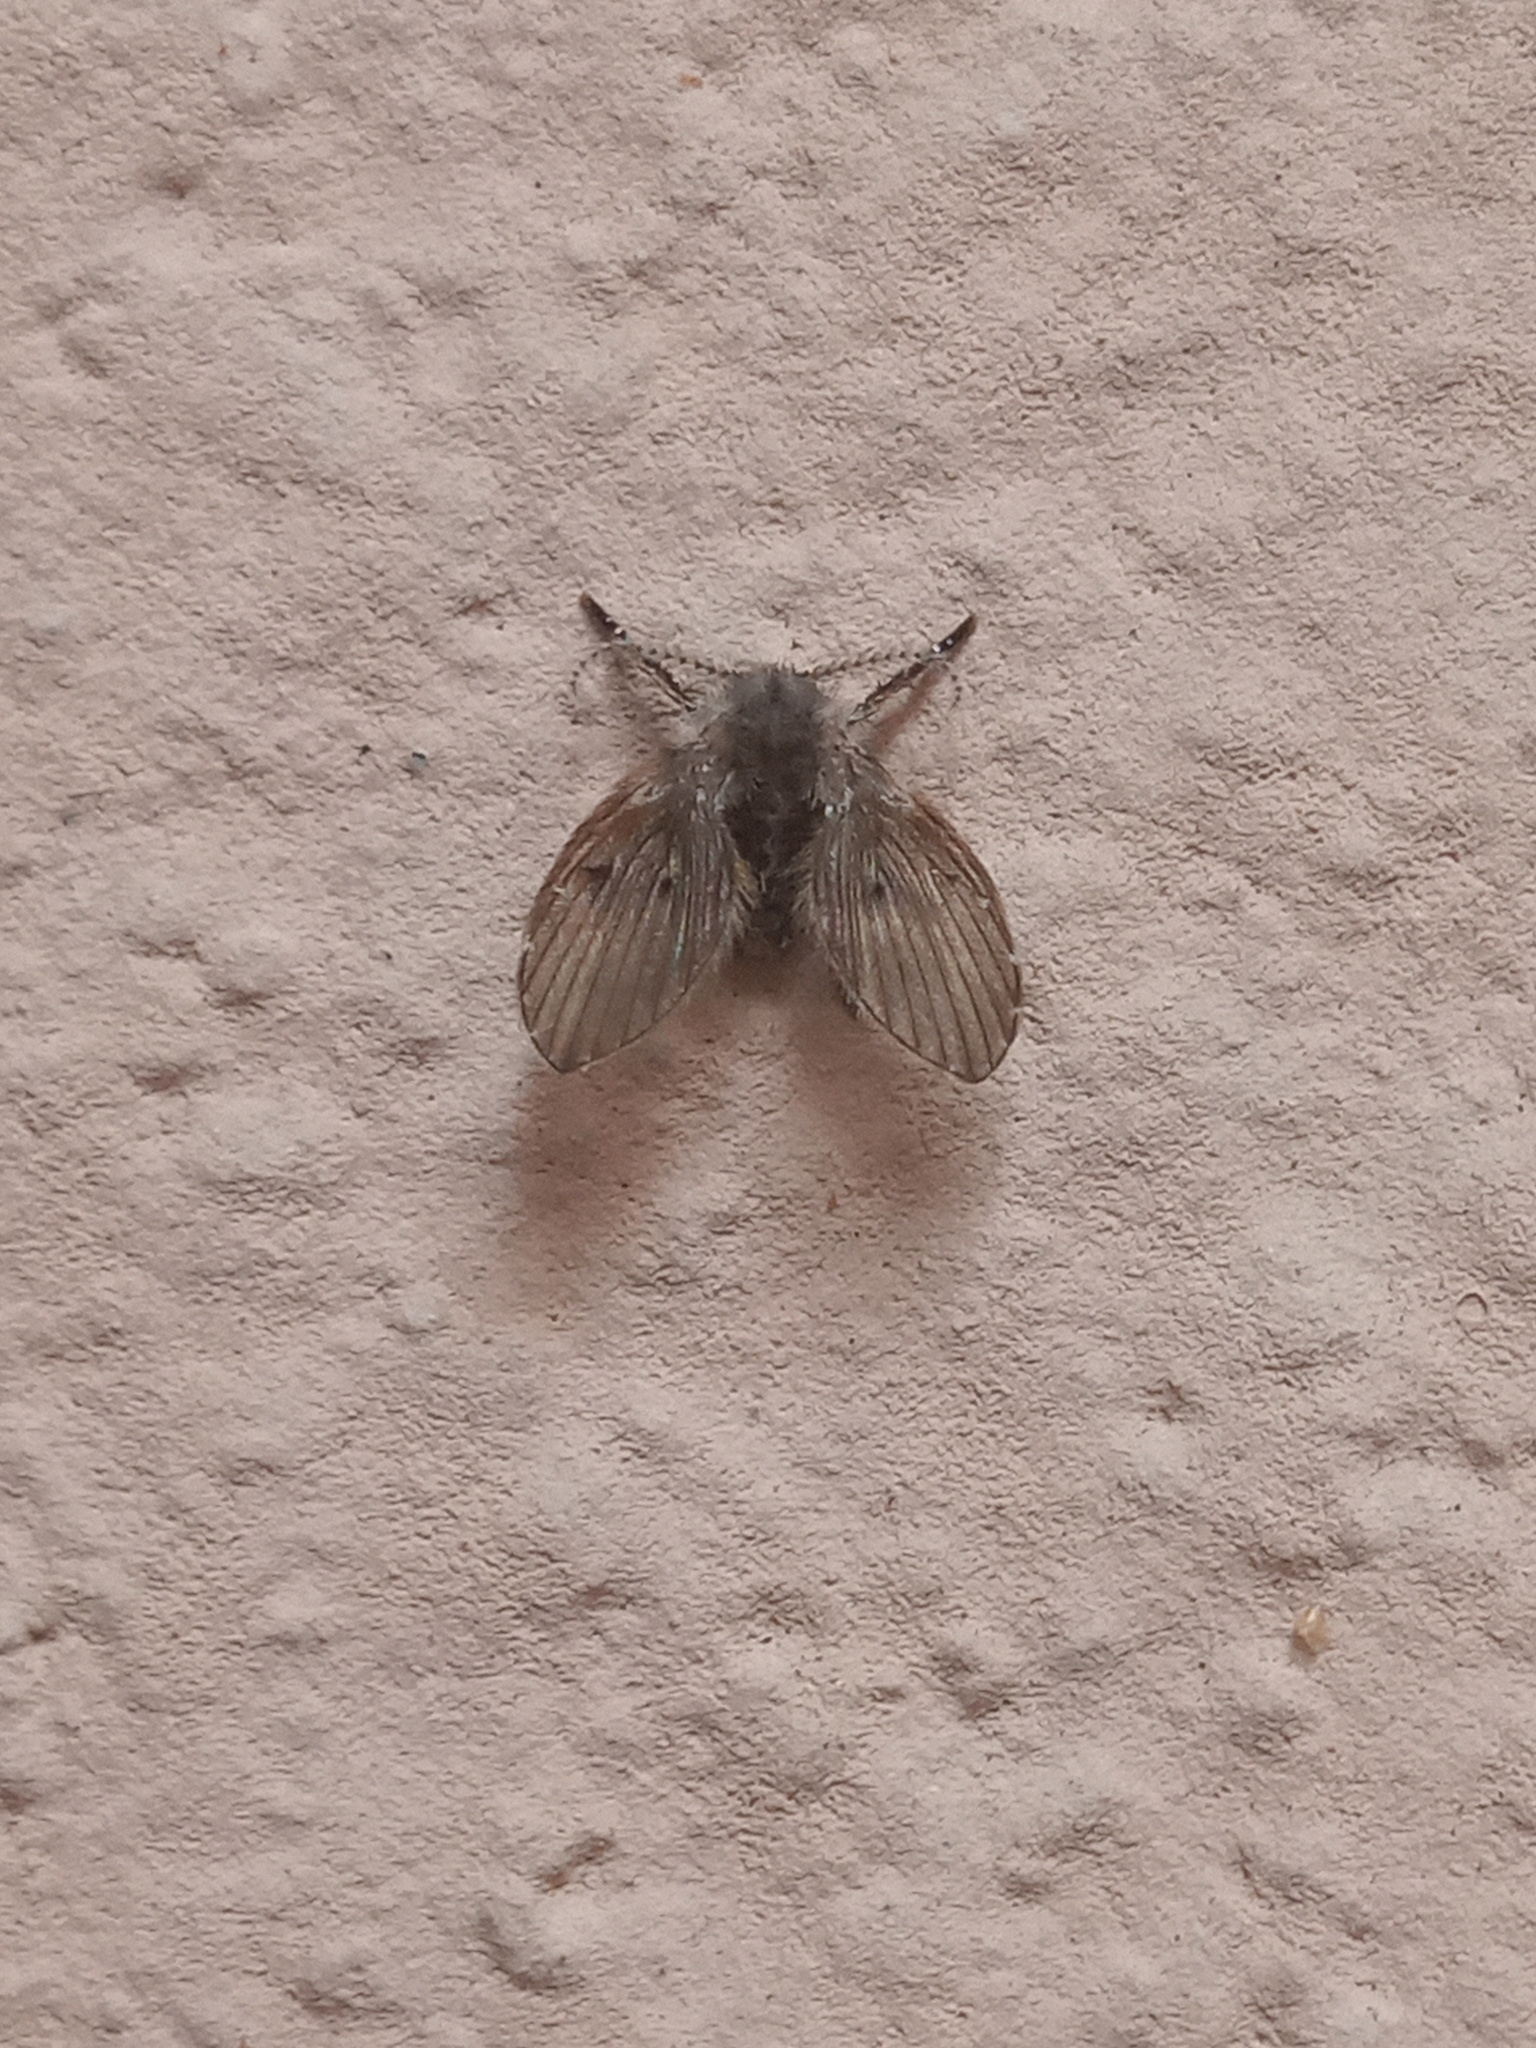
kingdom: Animalia
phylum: Arthropoda
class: Insecta
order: Diptera
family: Psychodidae
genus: Clogmia
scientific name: Clogmia albipunctatus
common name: White-spotted moth fly
